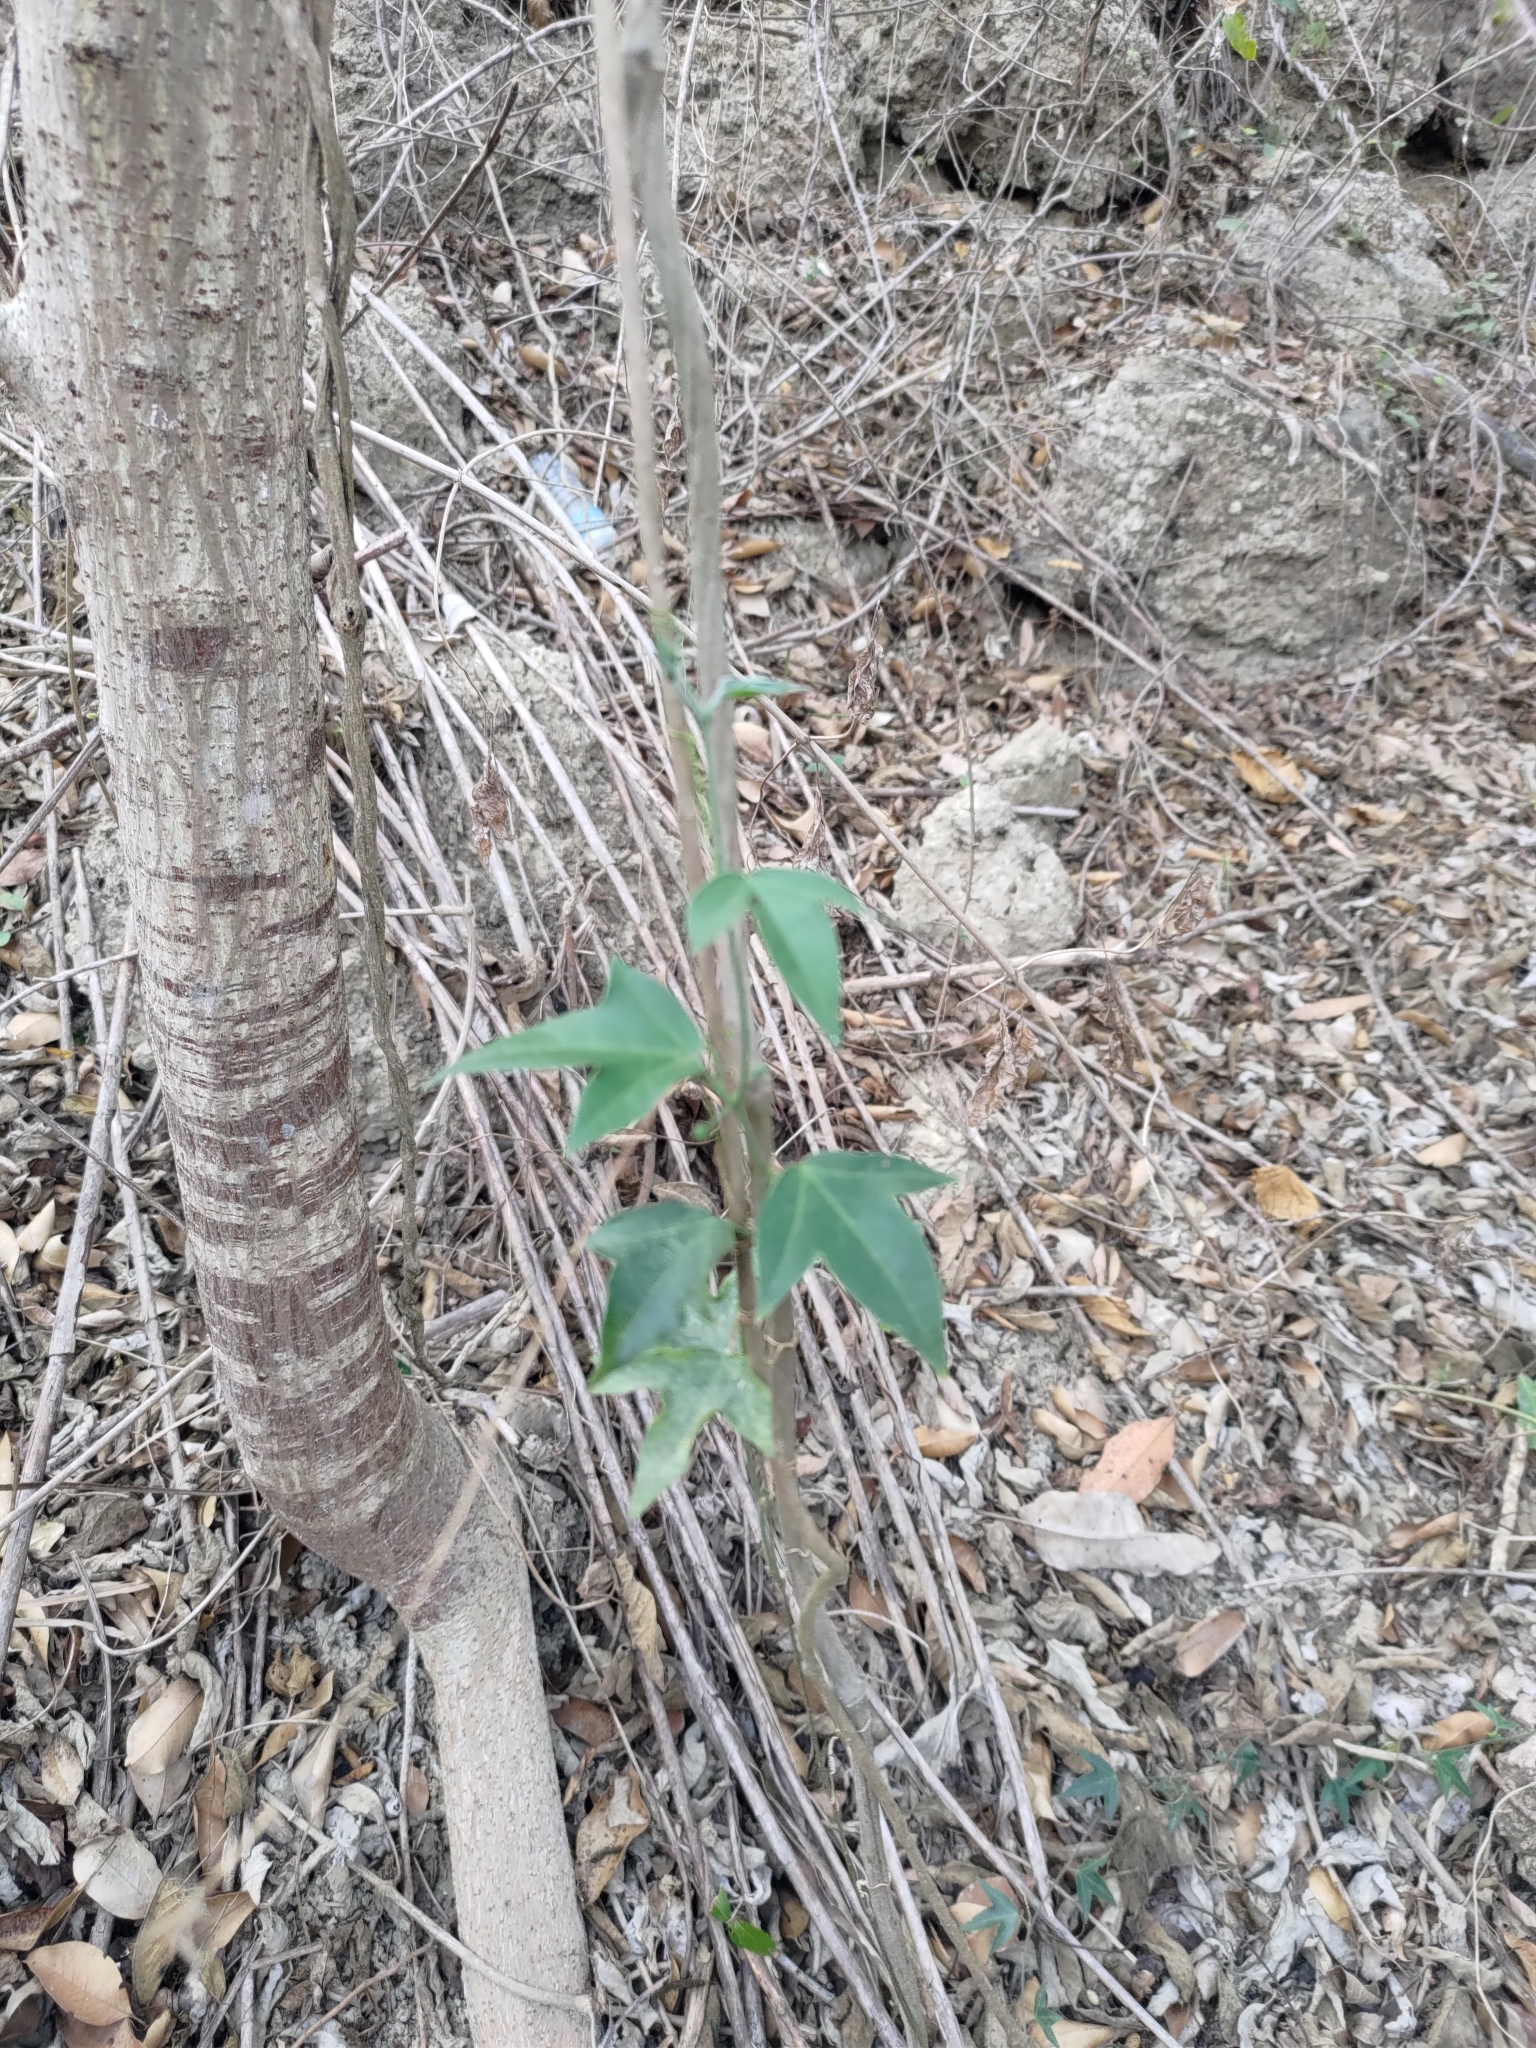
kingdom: Plantae
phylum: Tracheophyta
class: Magnoliopsida
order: Malpighiales
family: Passifloraceae
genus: Passiflora
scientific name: Passiflora suberosa
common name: Wild passionfruit
